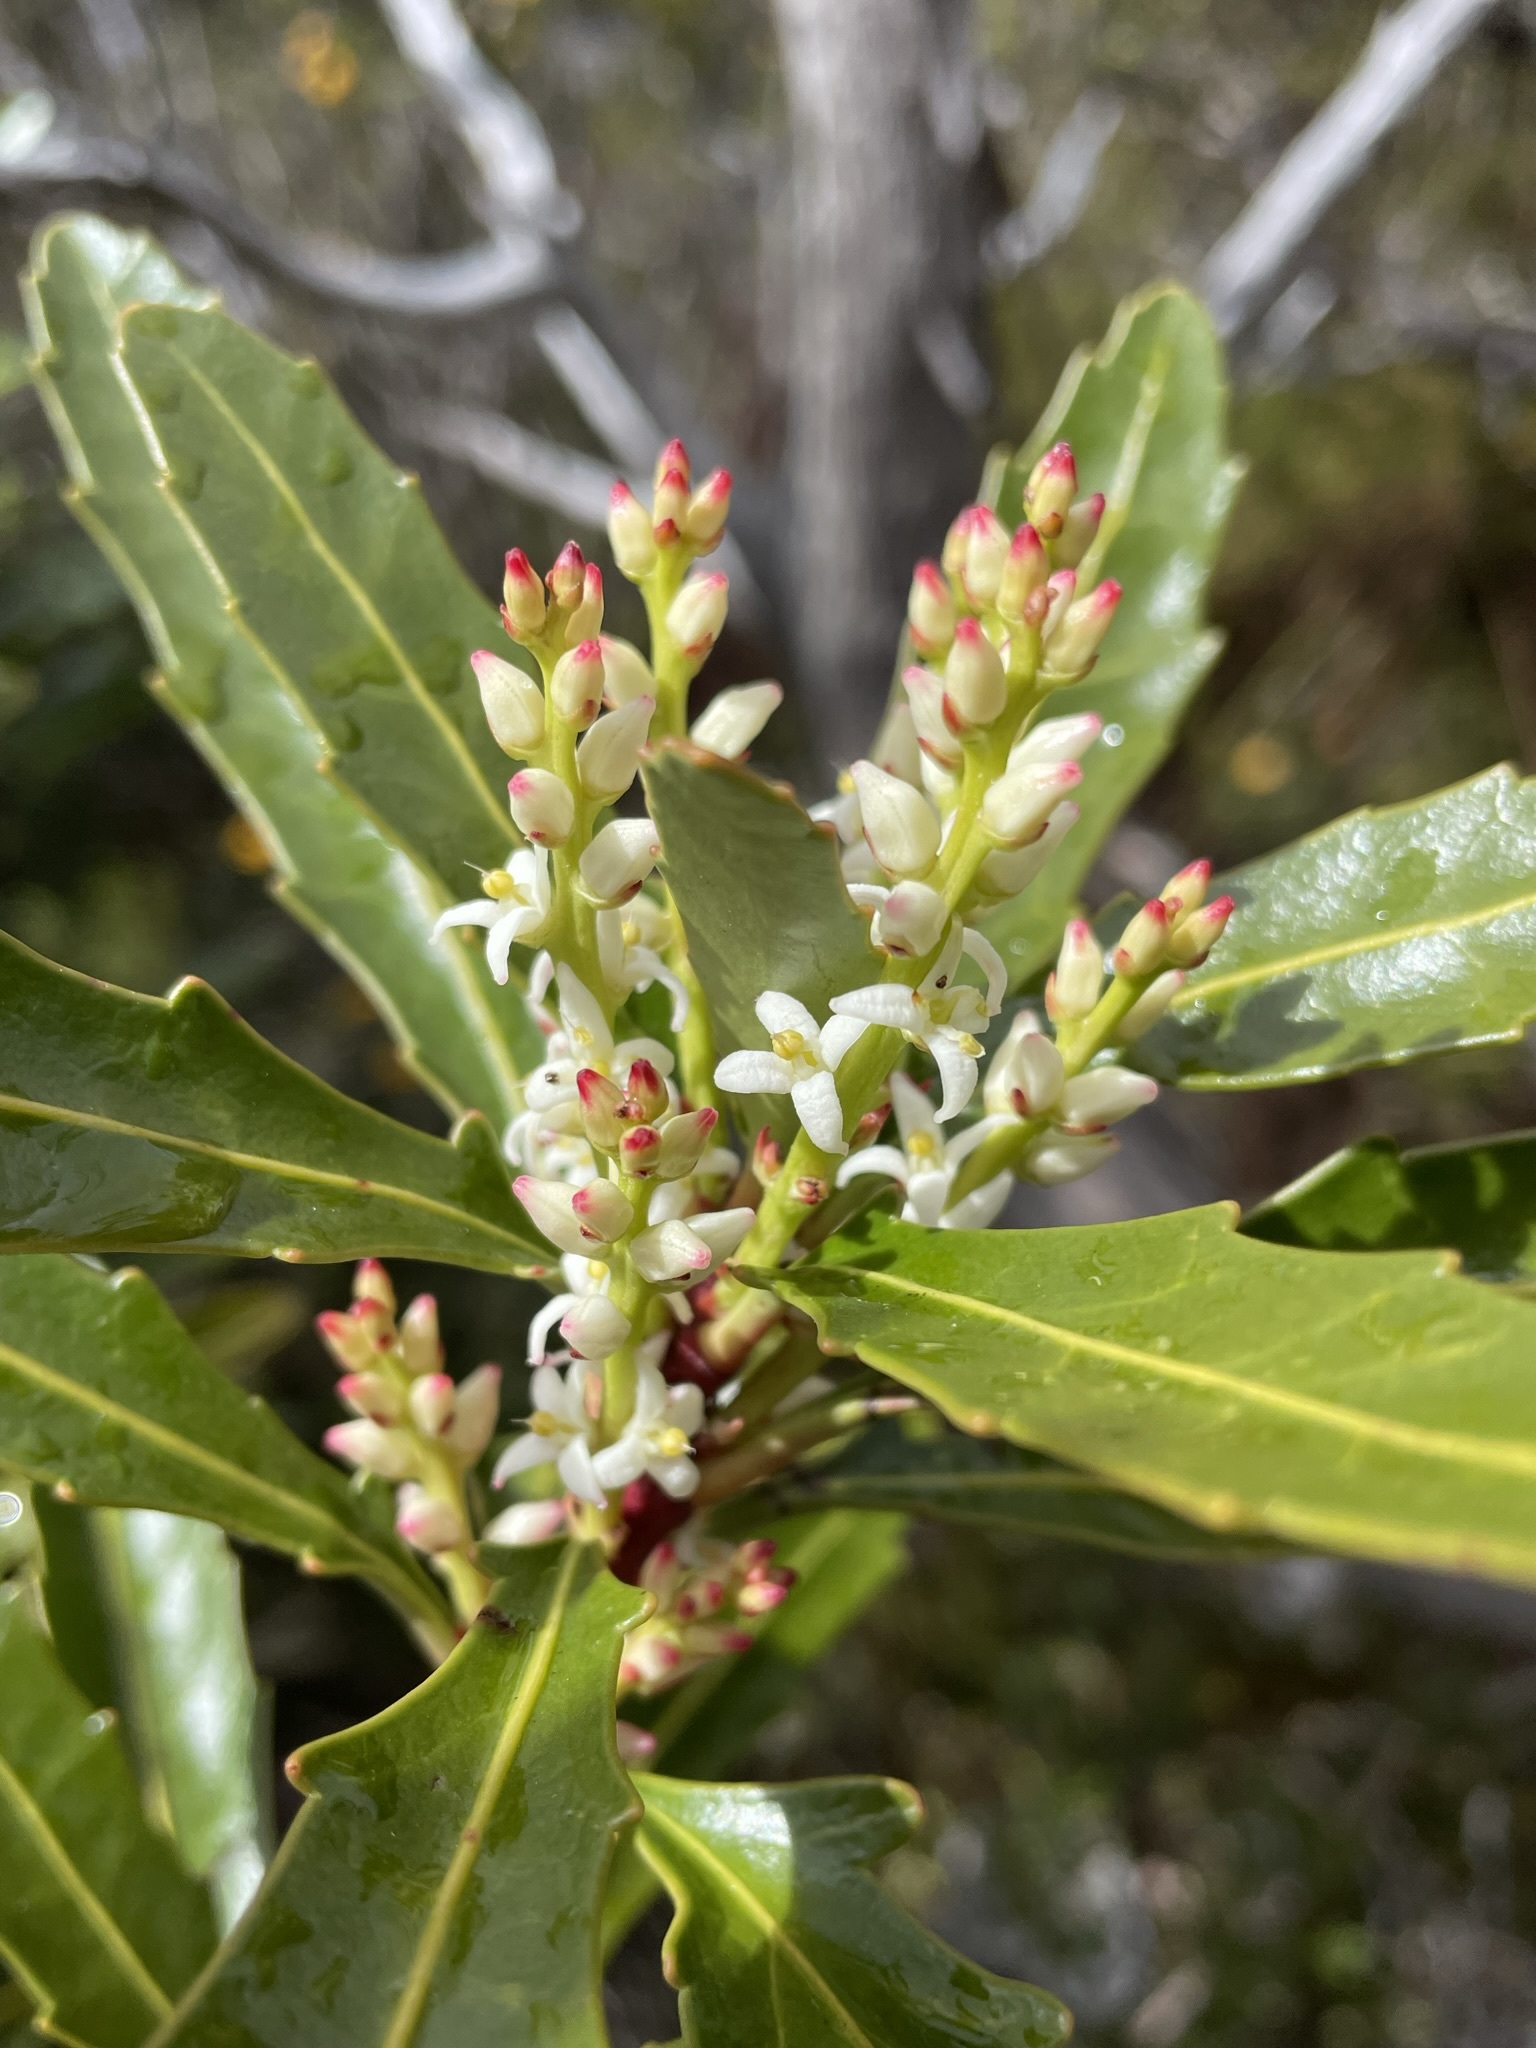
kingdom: Plantae
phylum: Tracheophyta
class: Magnoliopsida
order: Proteales
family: Proteaceae
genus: Cenarrhenes
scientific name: Cenarrhenes nitida
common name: Native plum
